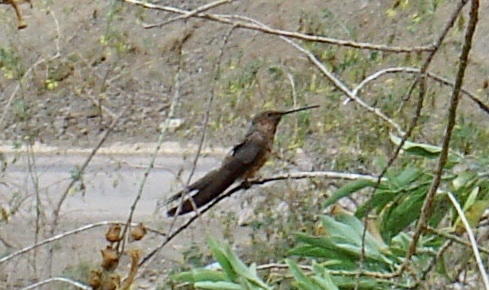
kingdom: Animalia
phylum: Chordata
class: Aves
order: Apodiformes
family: Trochilidae
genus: Patagona
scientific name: Patagona gigas
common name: Giant hummingbird
